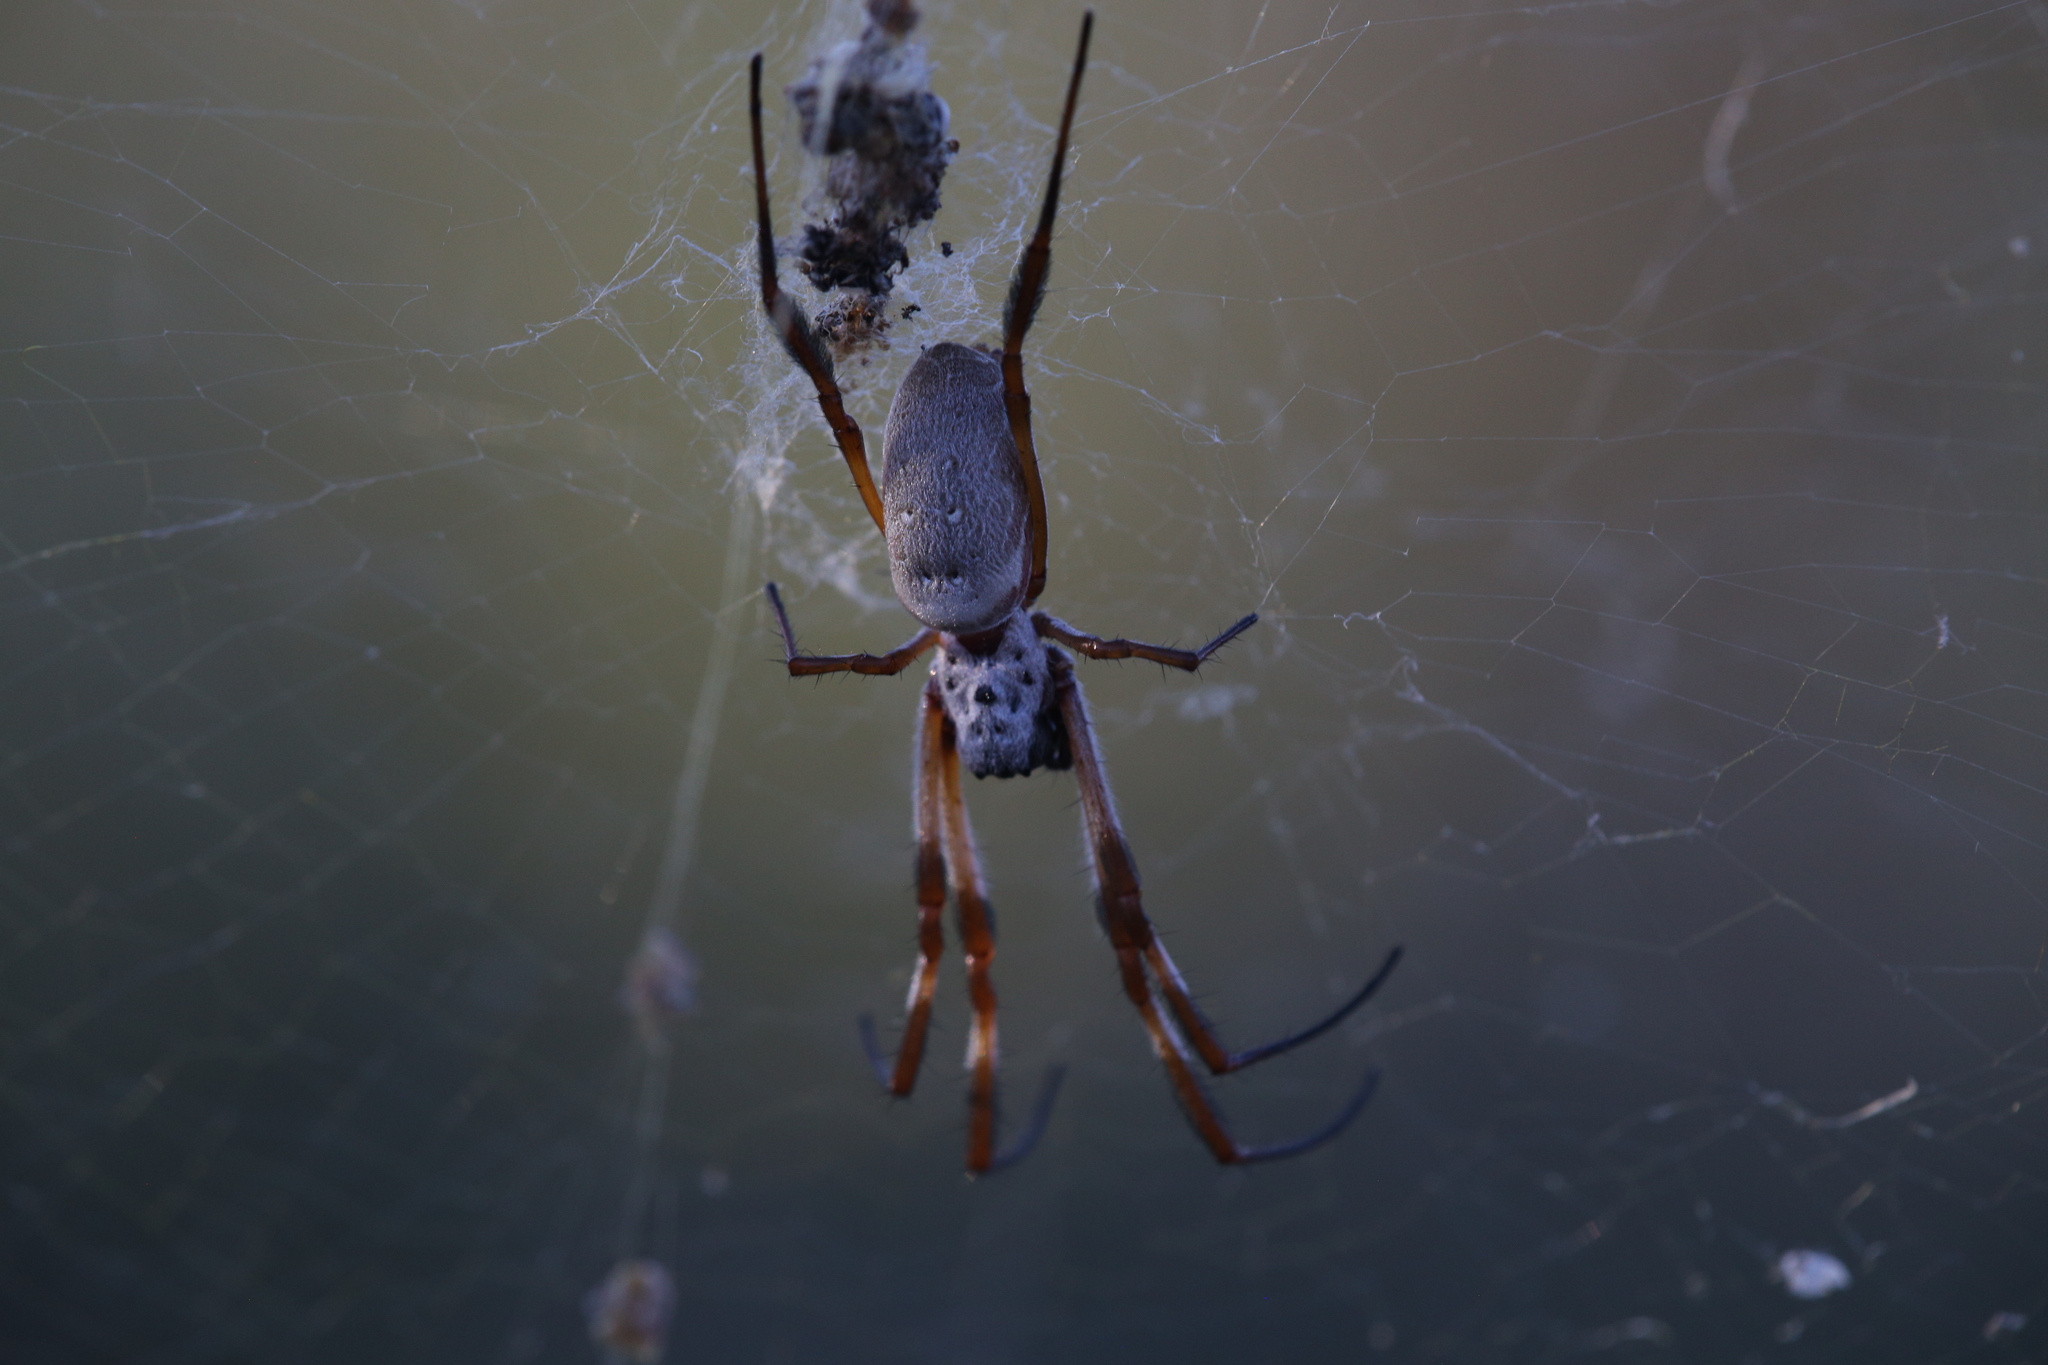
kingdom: Animalia
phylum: Arthropoda
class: Arachnida
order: Araneae
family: Araneidae
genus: Trichonephila
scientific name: Trichonephila edulis
